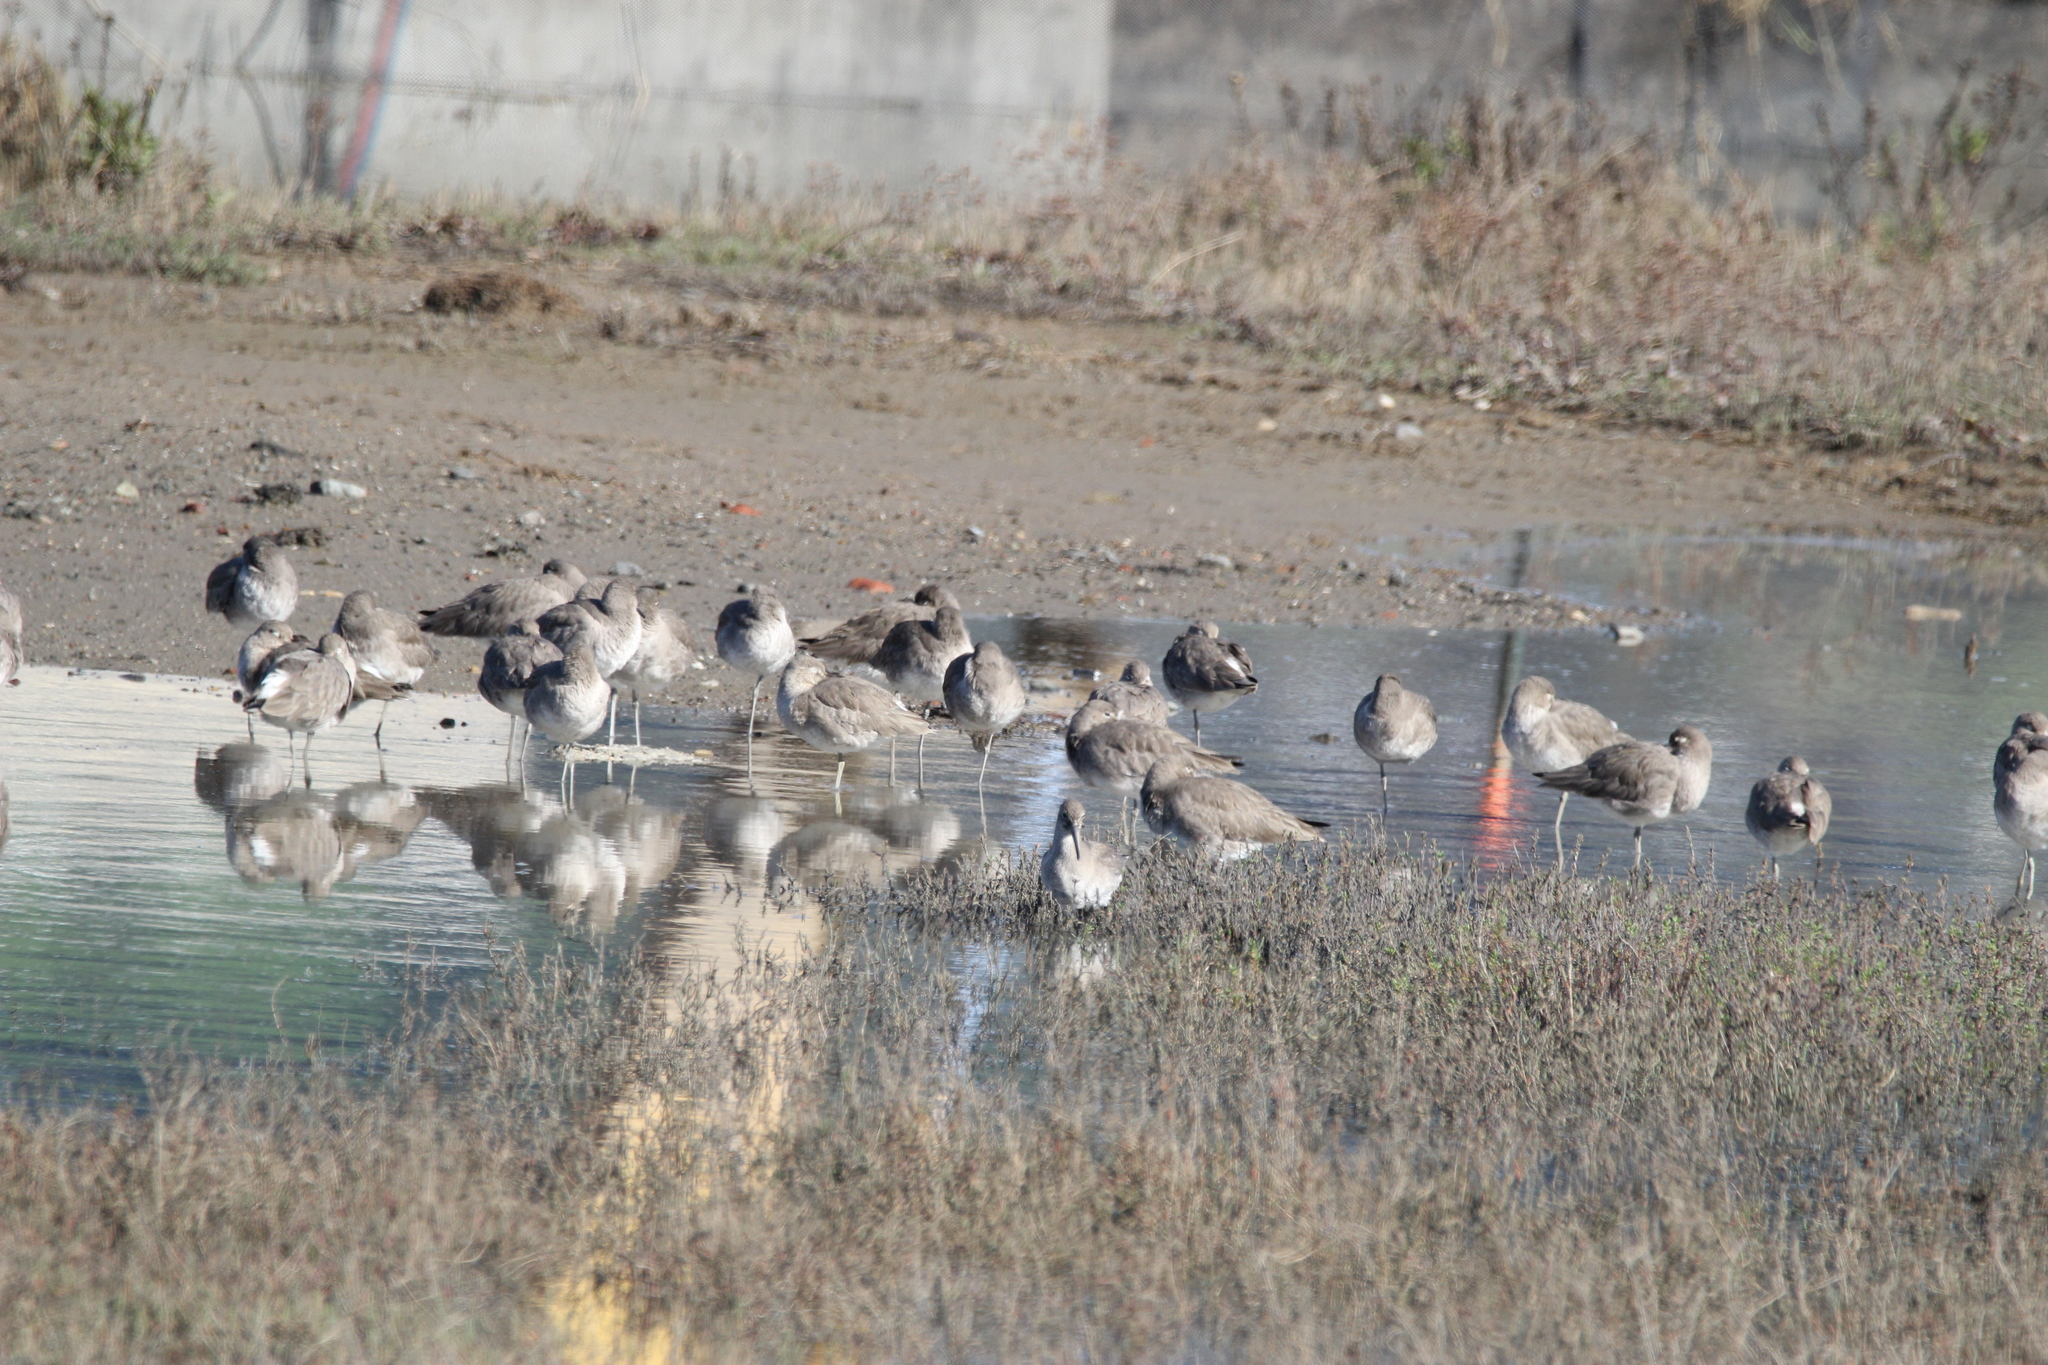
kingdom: Animalia
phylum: Chordata
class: Aves
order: Charadriiformes
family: Scolopacidae
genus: Tringa
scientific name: Tringa semipalmata
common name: Willet
